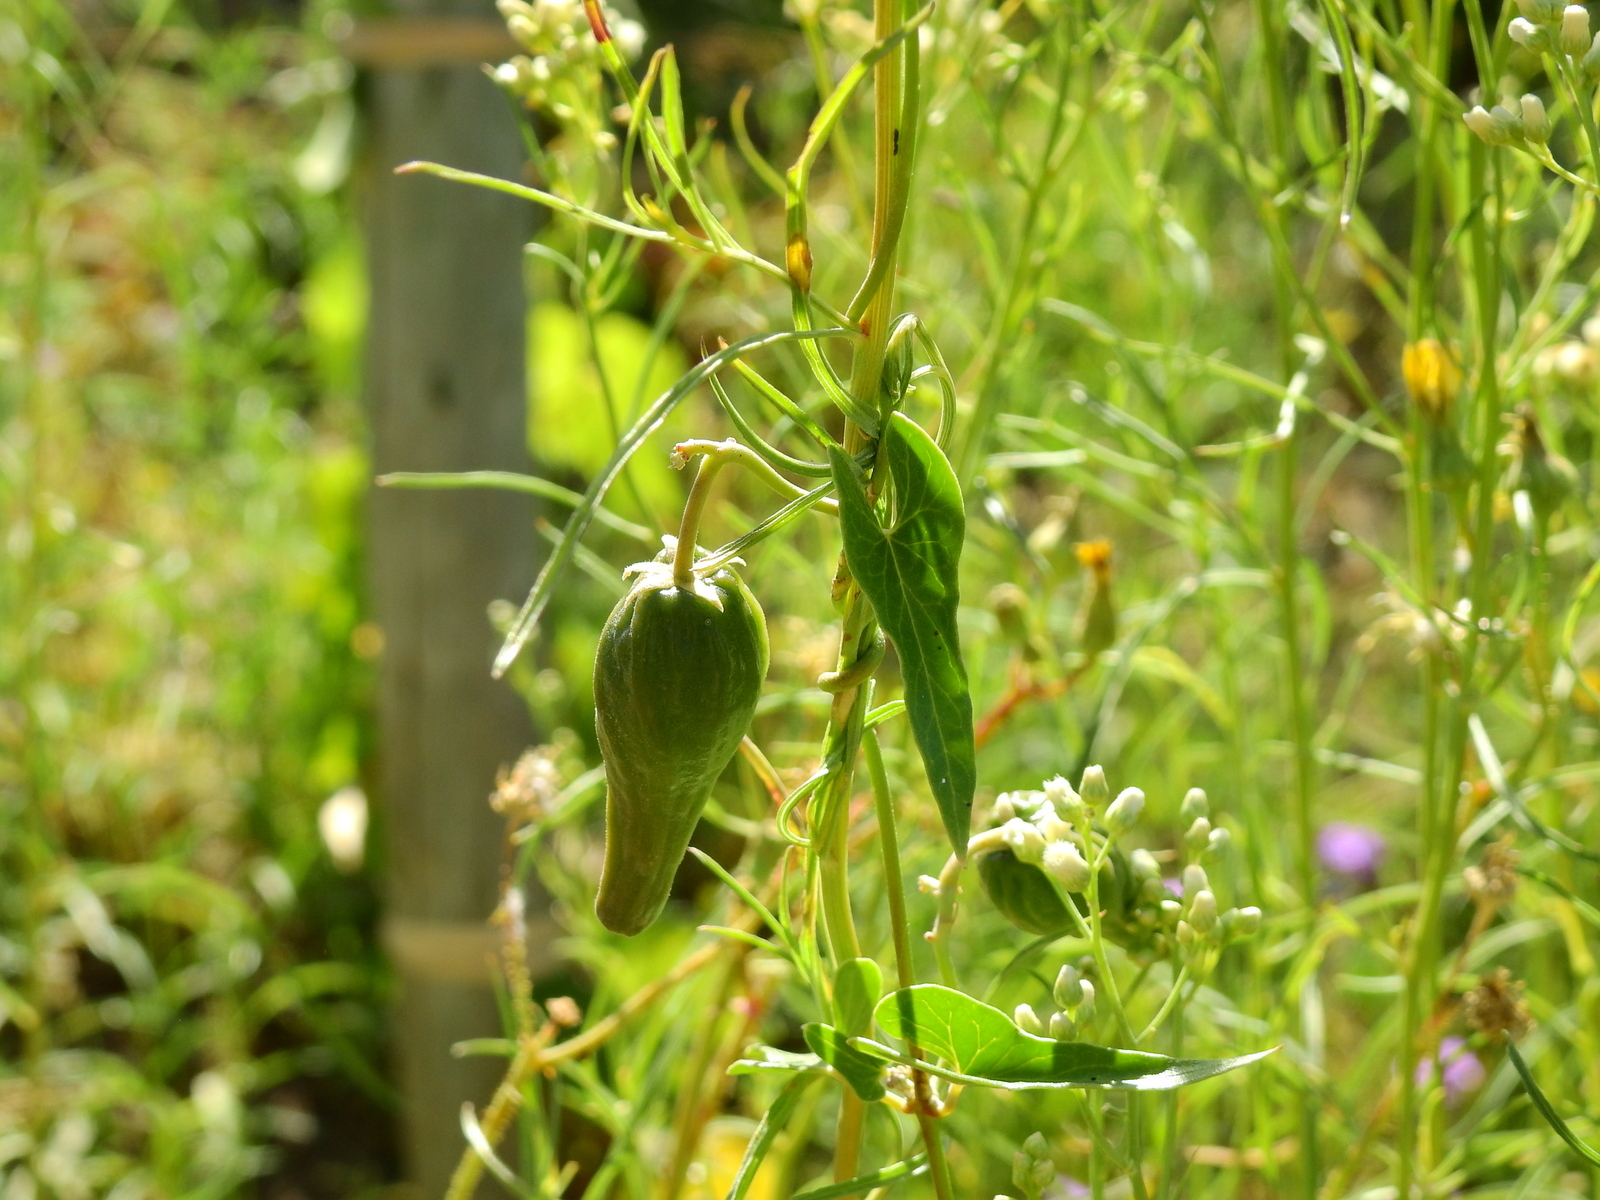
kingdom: Plantae
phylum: Tracheophyta
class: Magnoliopsida
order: Gentianales
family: Apocynaceae
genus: Philibertia
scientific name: Philibertia gilliesii
